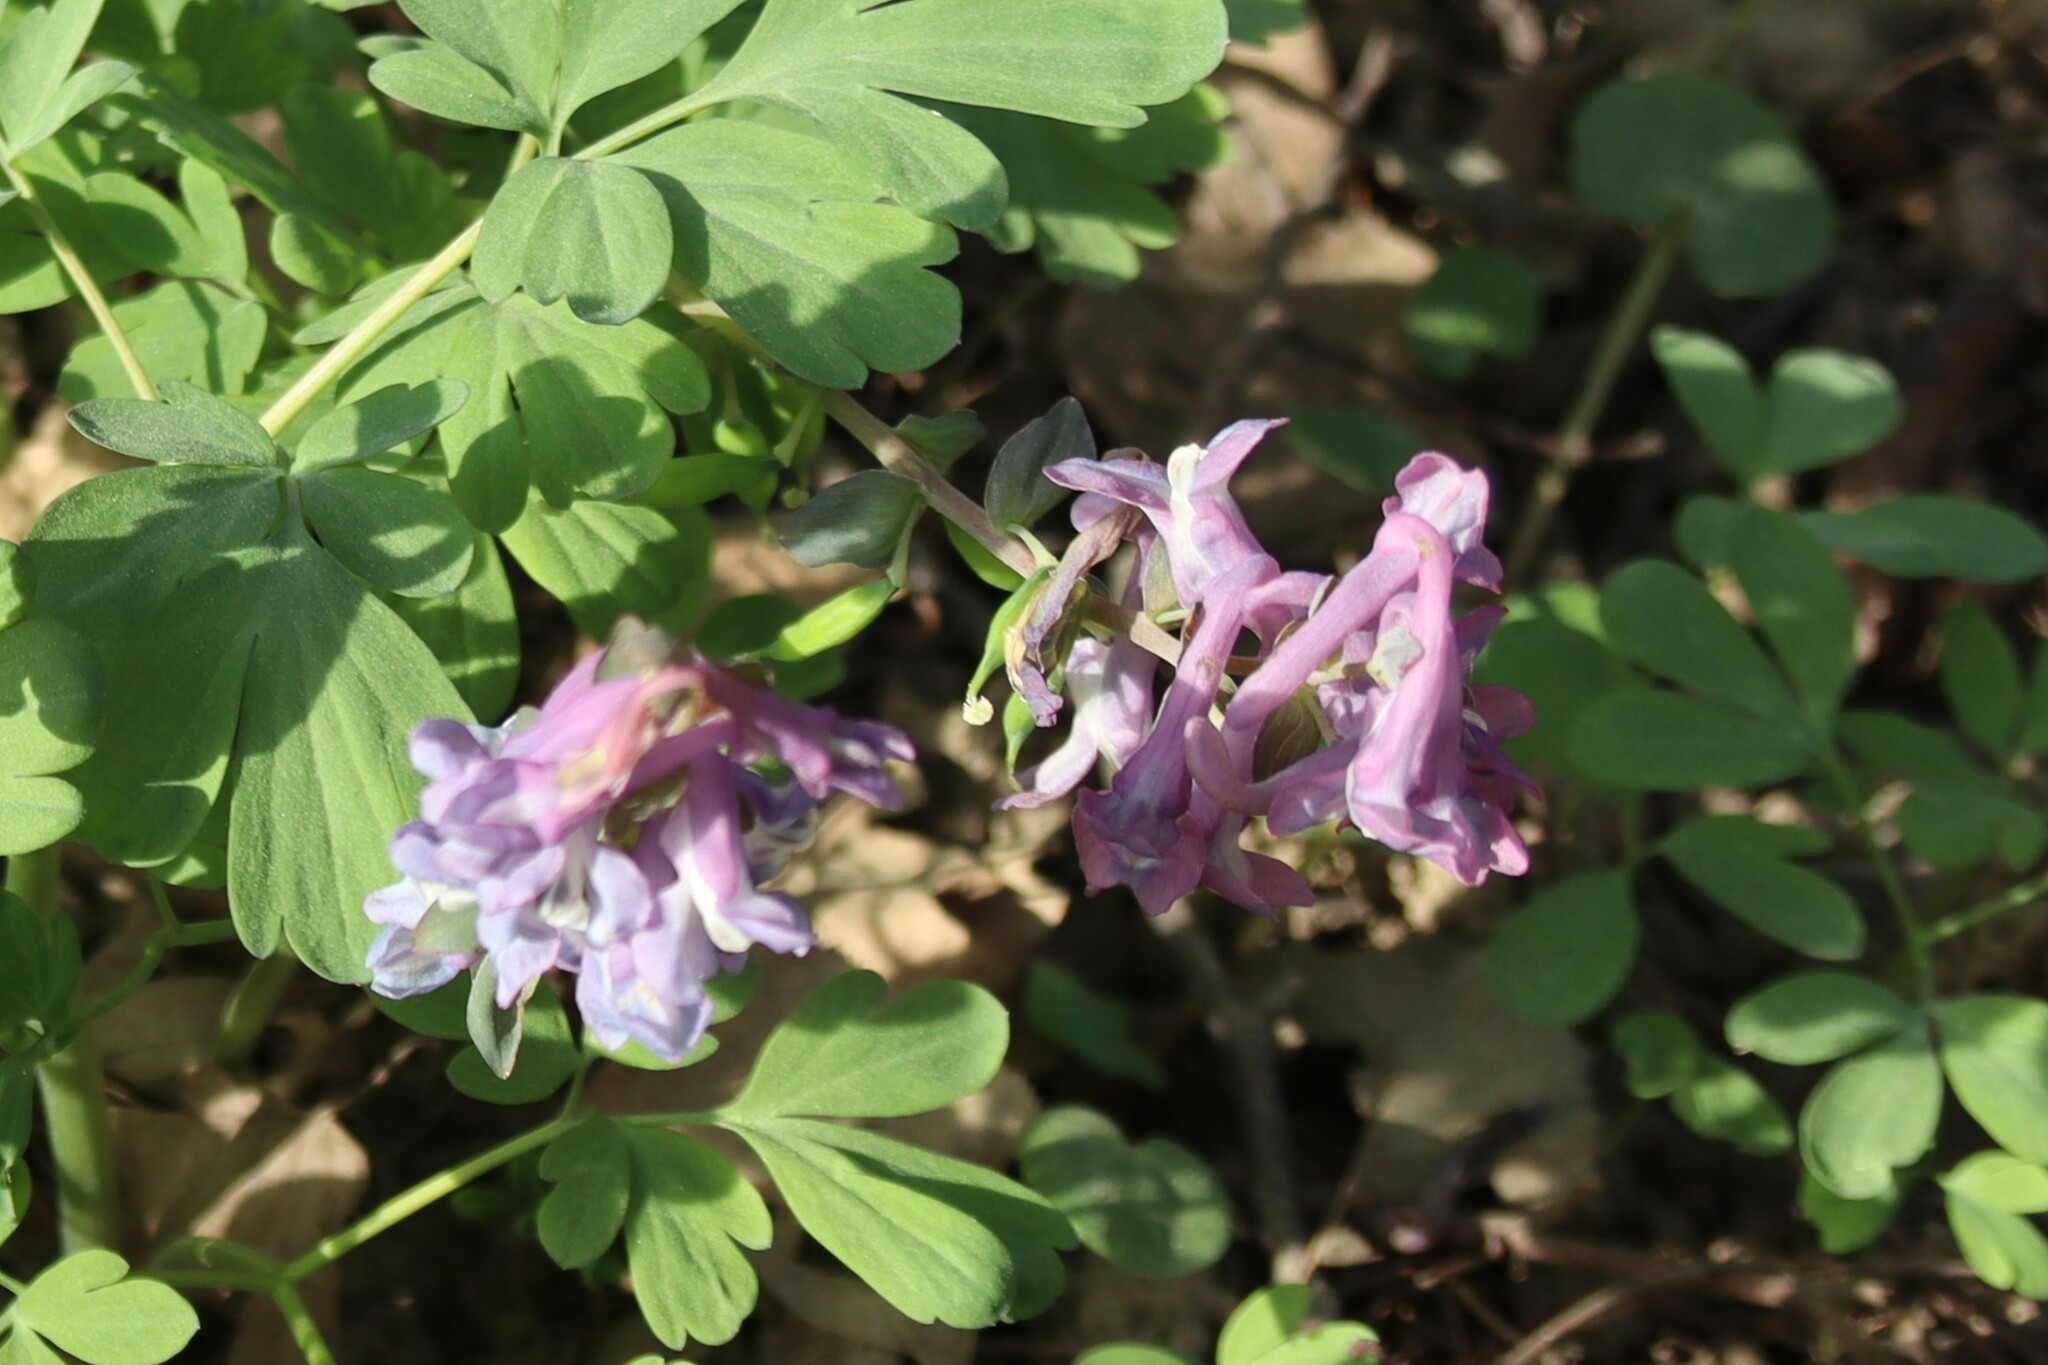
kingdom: Plantae
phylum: Tracheophyta
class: Magnoliopsida
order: Ranunculales
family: Papaveraceae
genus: Corydalis
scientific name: Corydalis cava
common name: Hollowroot
